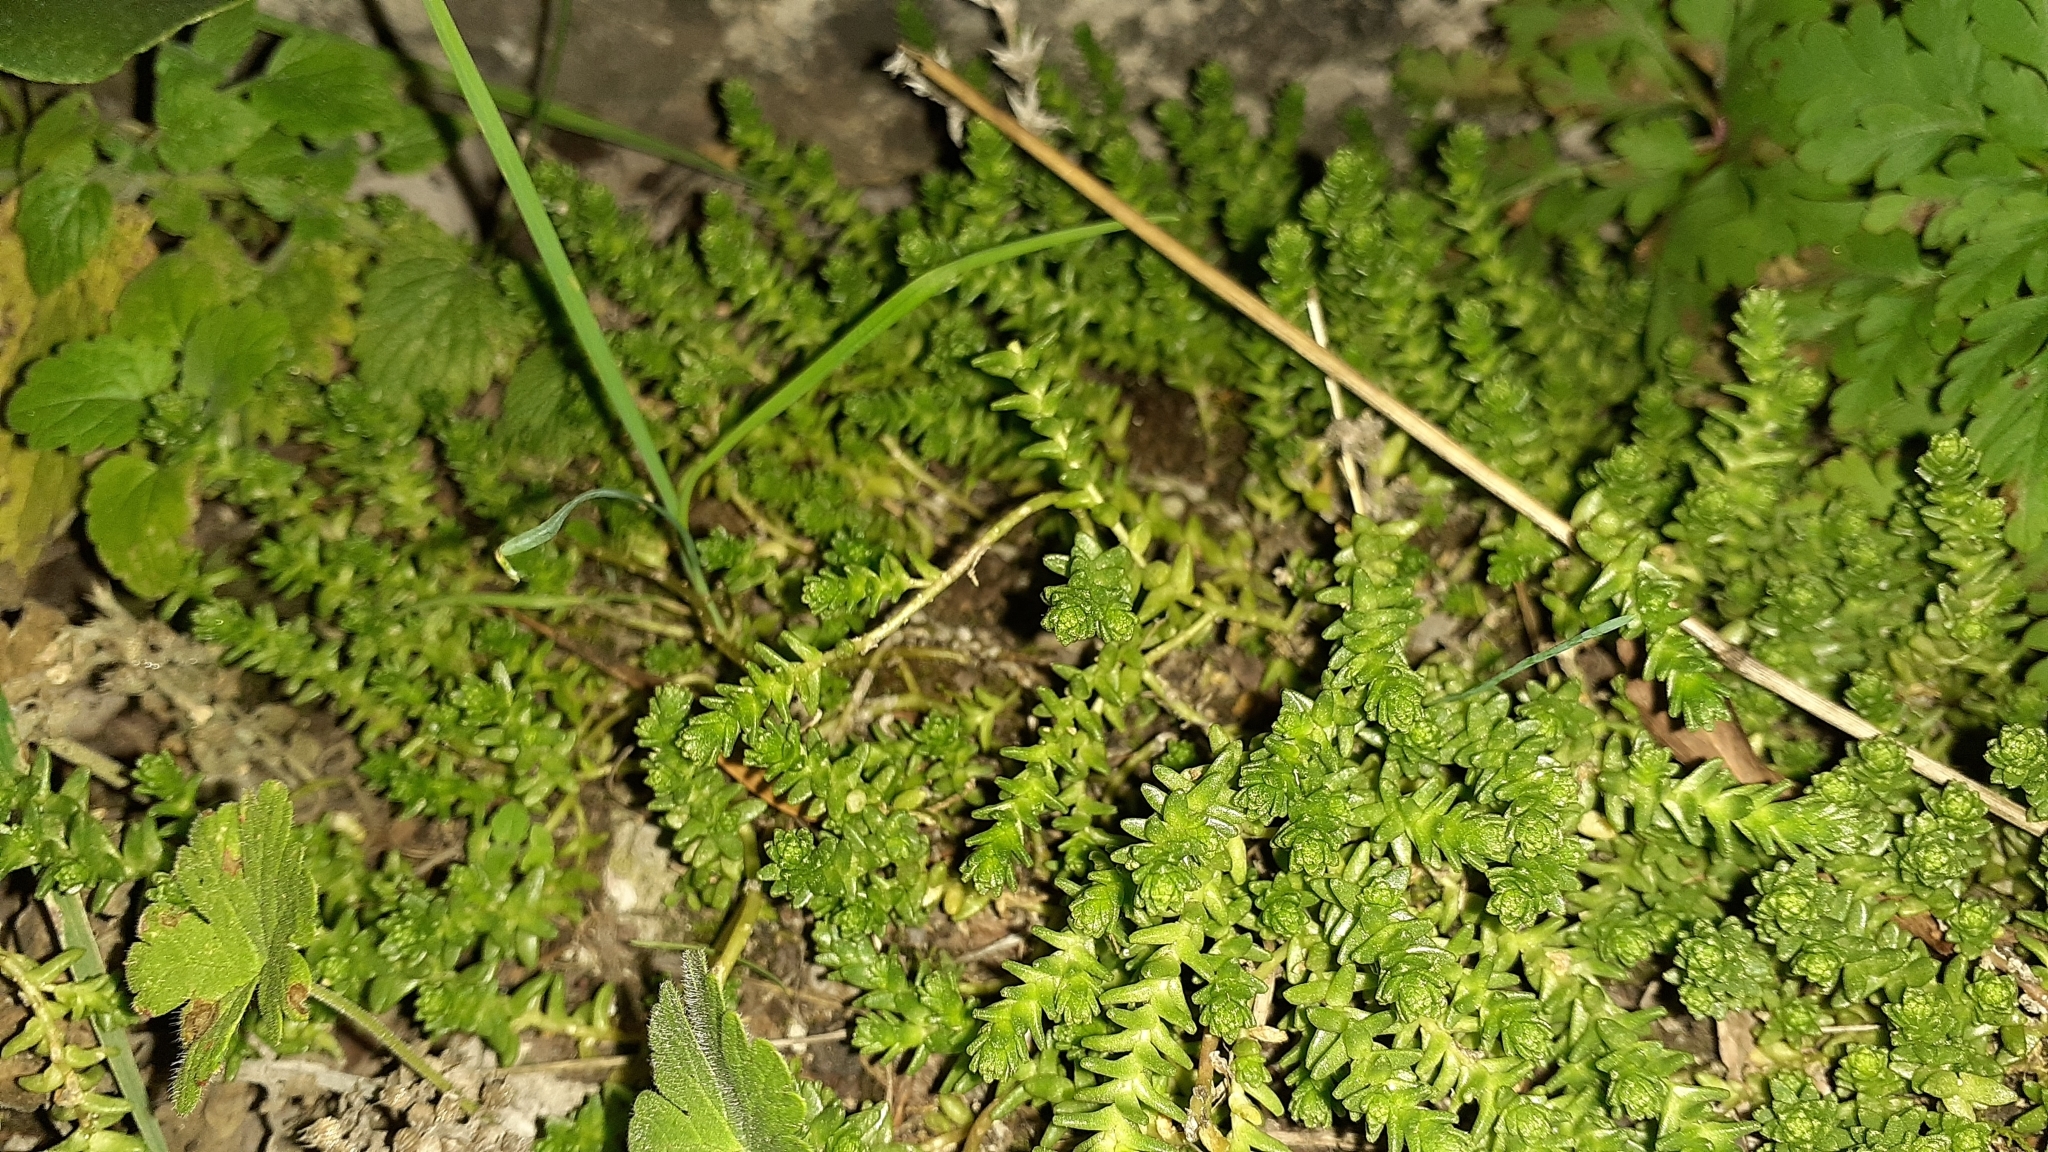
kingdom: Plantae
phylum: Tracheophyta
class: Magnoliopsida
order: Saxifragales
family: Crassulaceae
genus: Sedum
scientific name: Sedum acre
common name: Biting stonecrop
